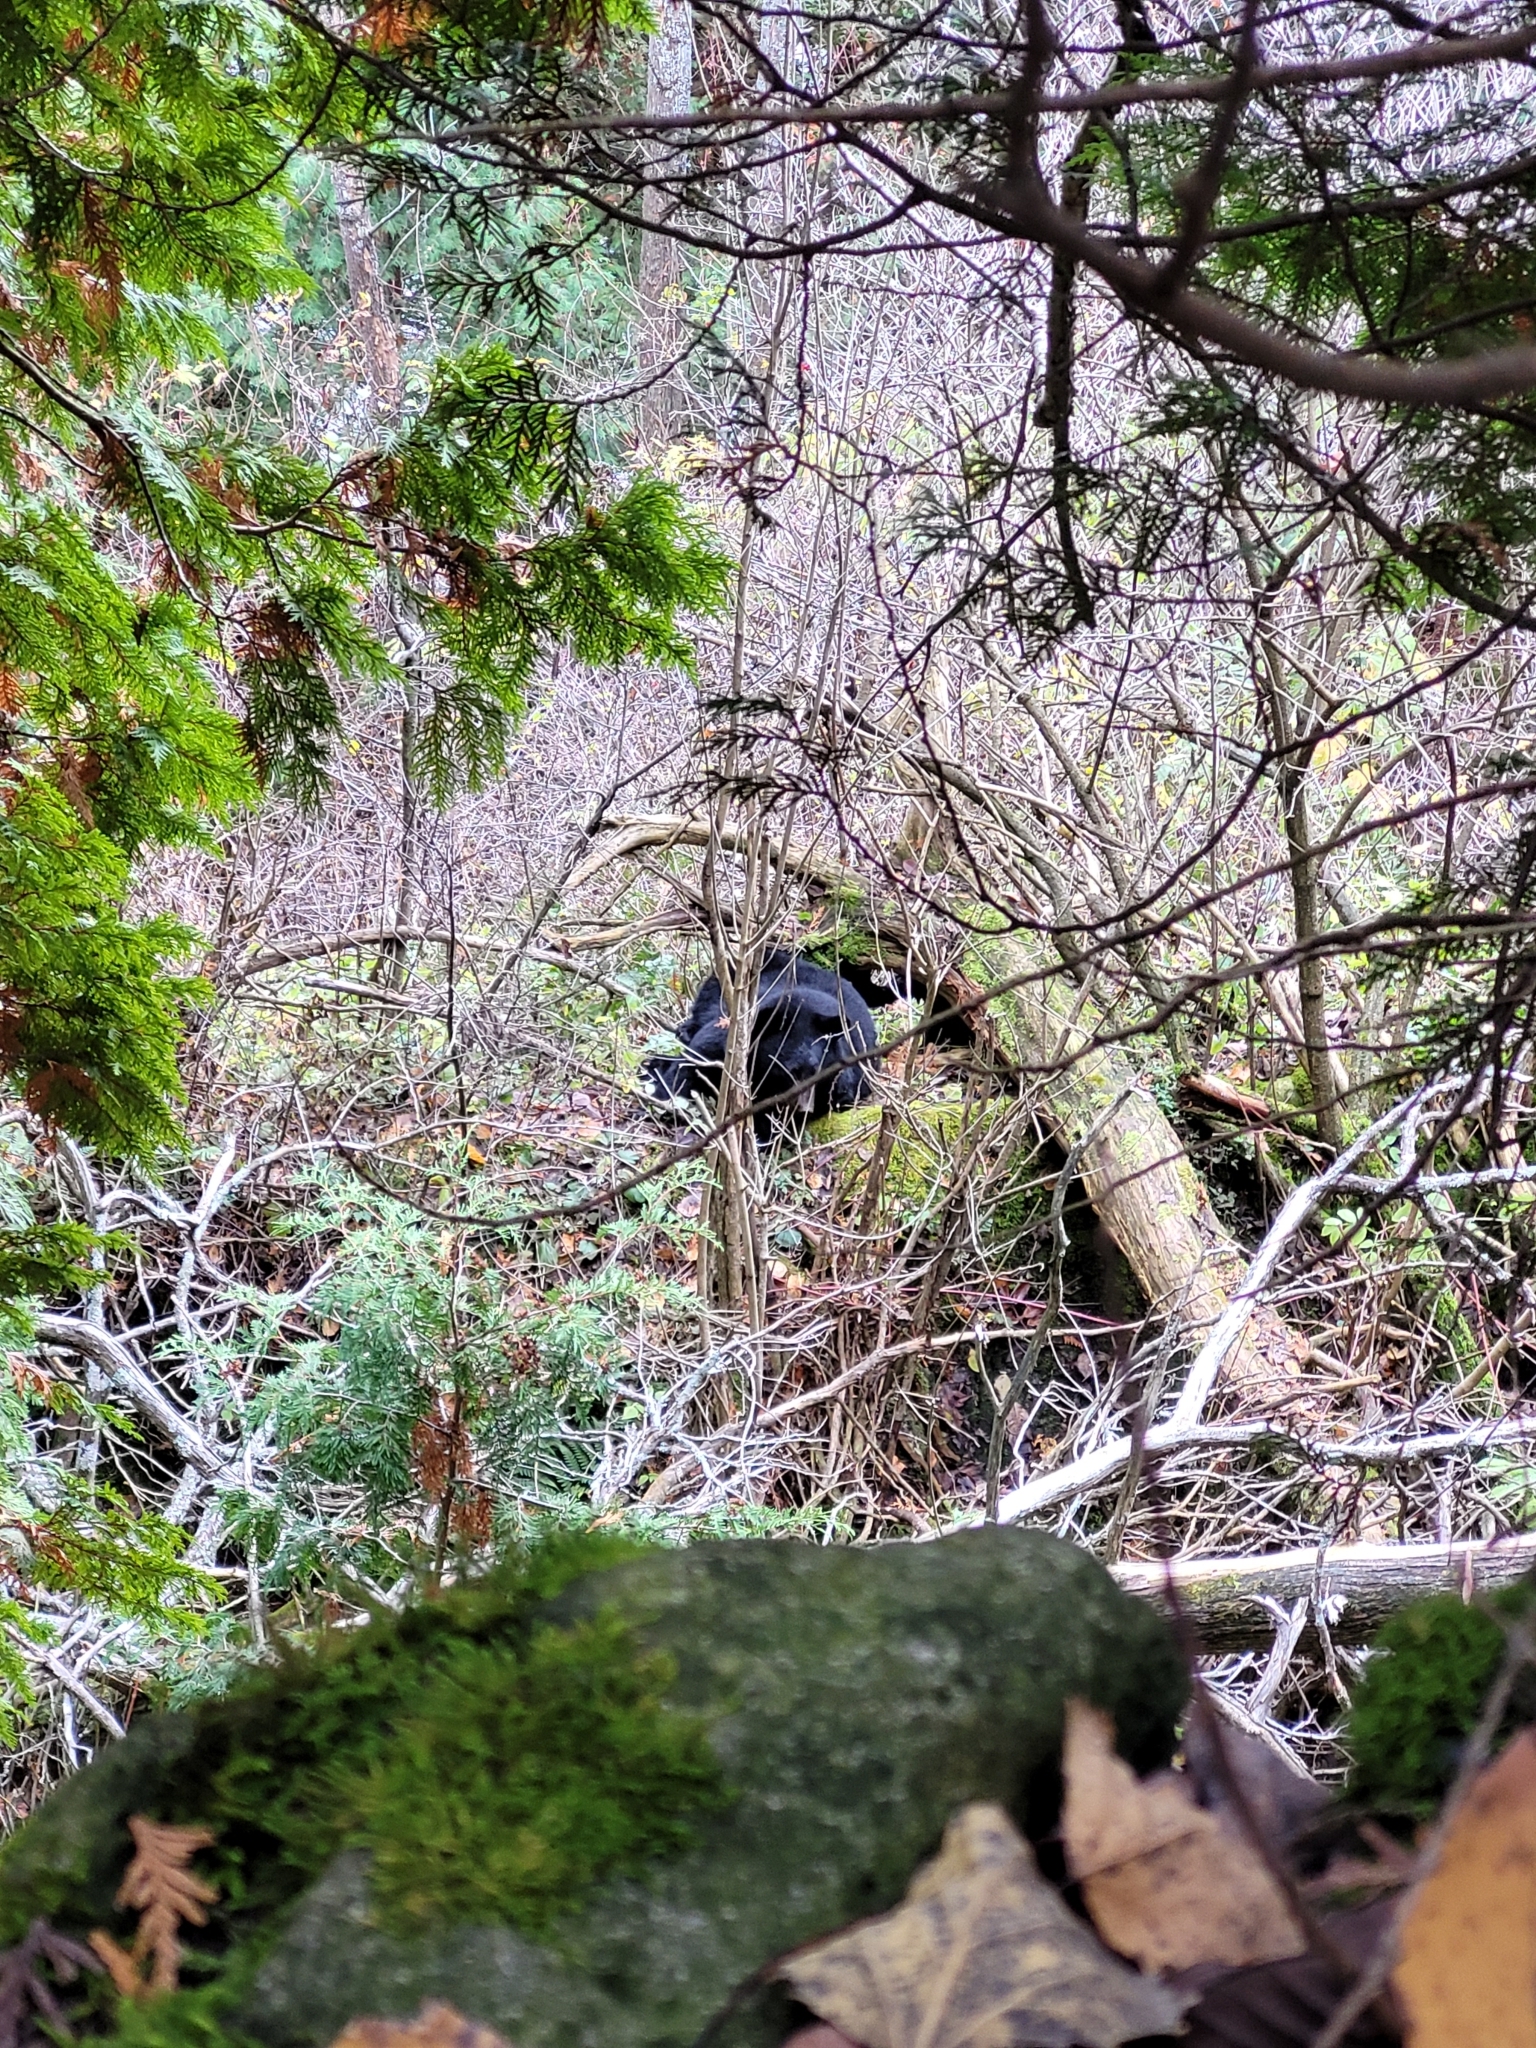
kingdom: Animalia
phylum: Chordata
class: Mammalia
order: Carnivora
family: Ursidae
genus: Ursus
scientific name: Ursus americanus
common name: American black bear
